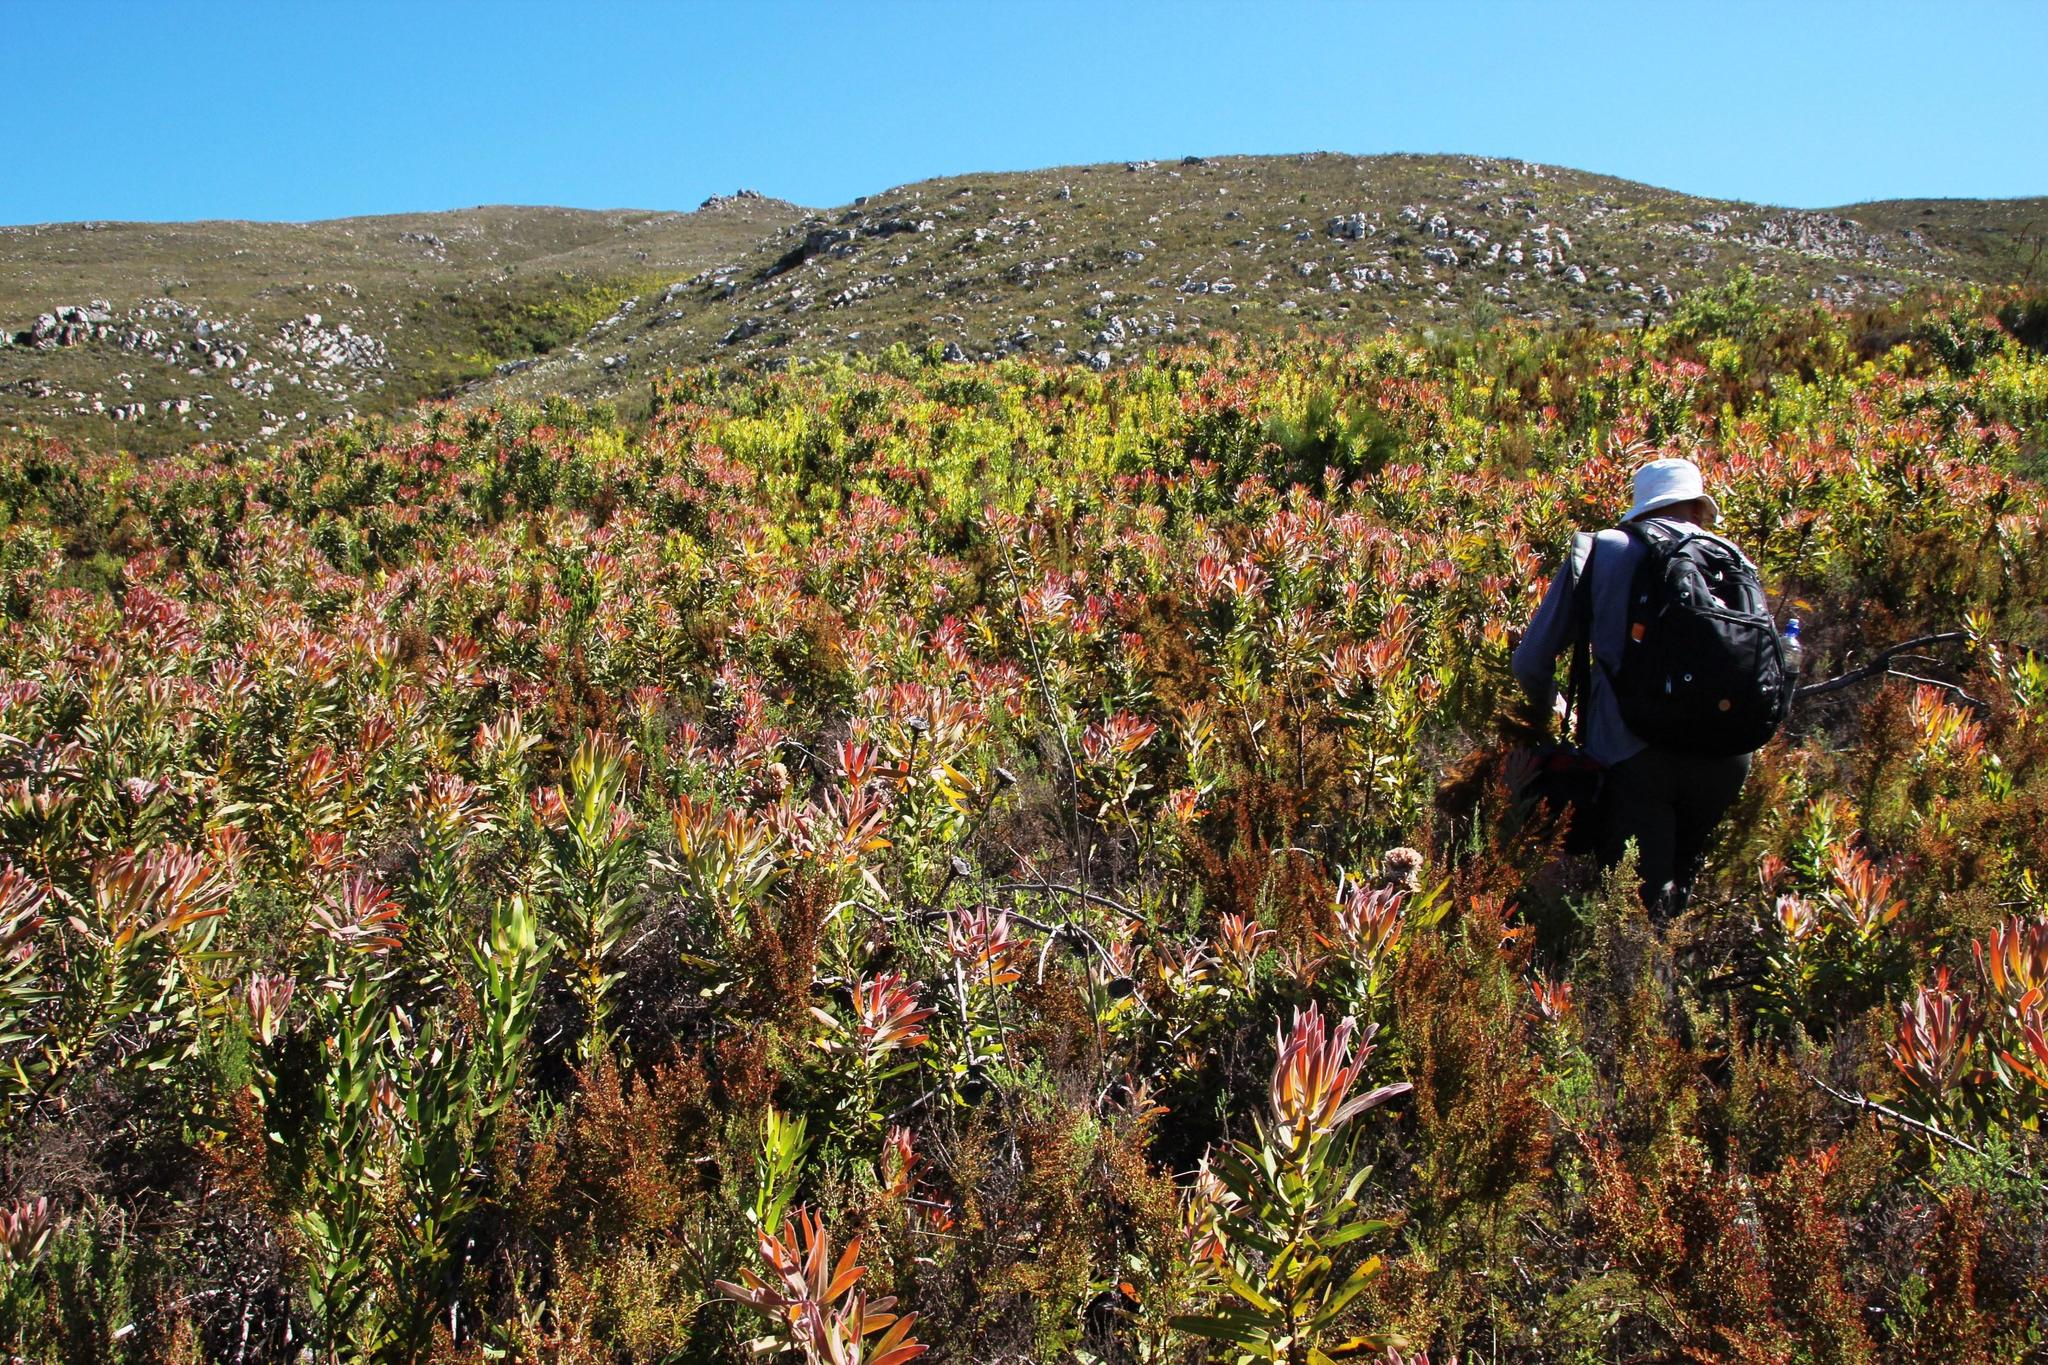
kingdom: Plantae
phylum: Tracheophyta
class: Magnoliopsida
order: Proteales
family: Proteaceae
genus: Protea
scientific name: Protea neriifolia
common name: Blue sugarbush
